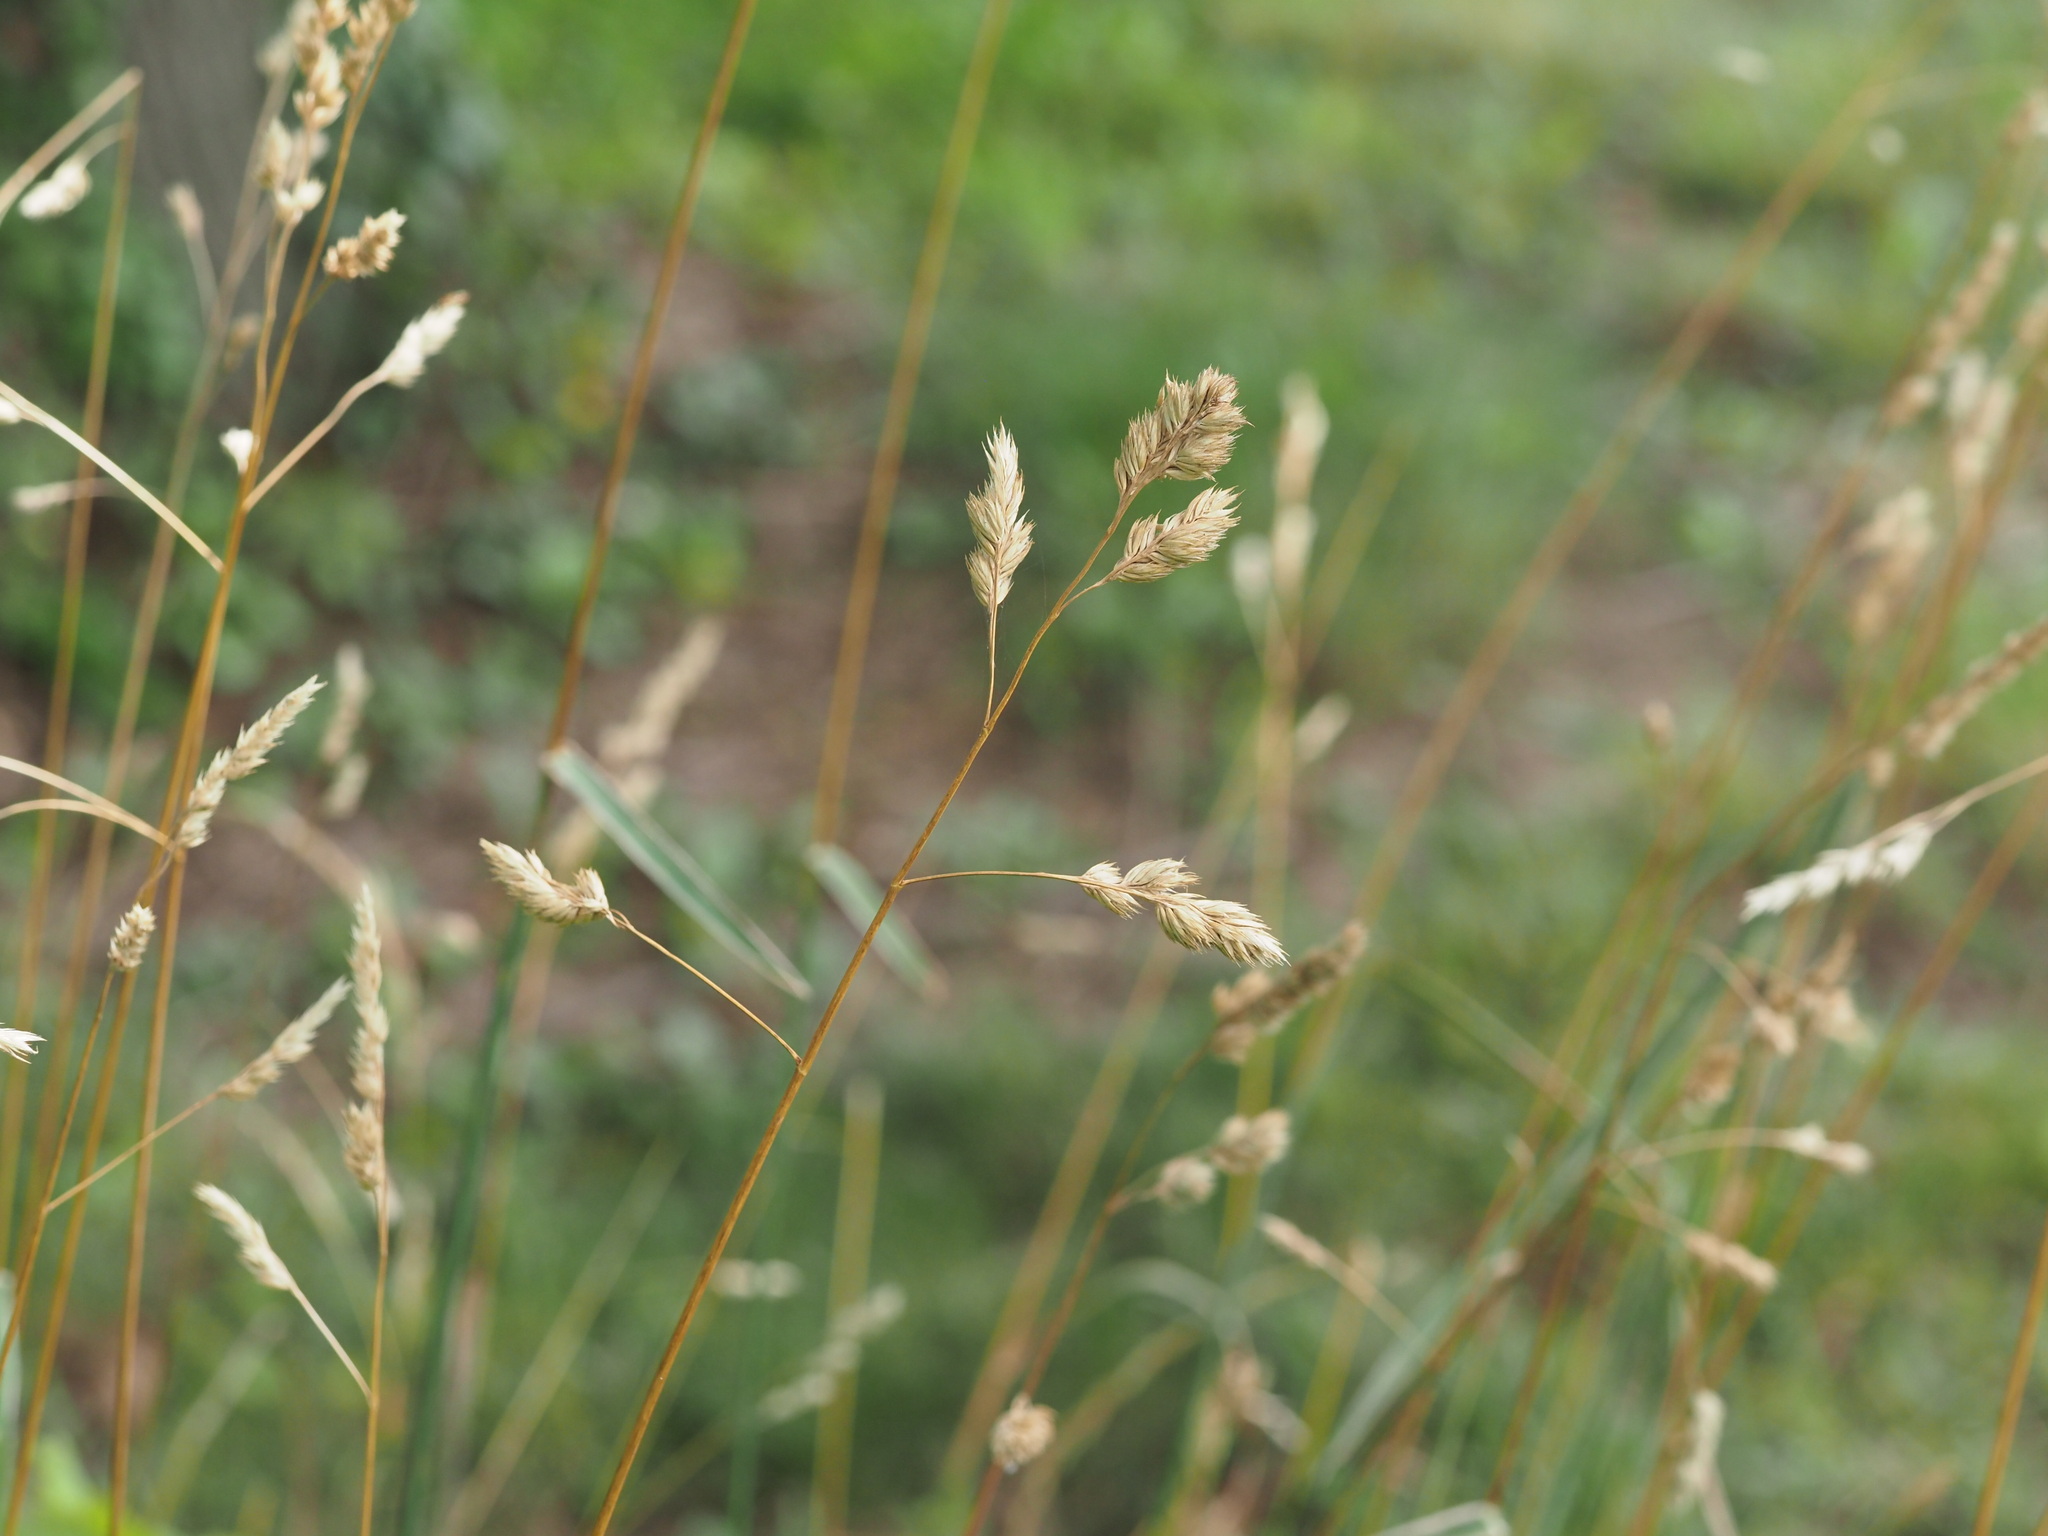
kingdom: Plantae
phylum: Tracheophyta
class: Liliopsida
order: Poales
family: Poaceae
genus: Dactylis
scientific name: Dactylis glomerata
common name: Orchardgrass
